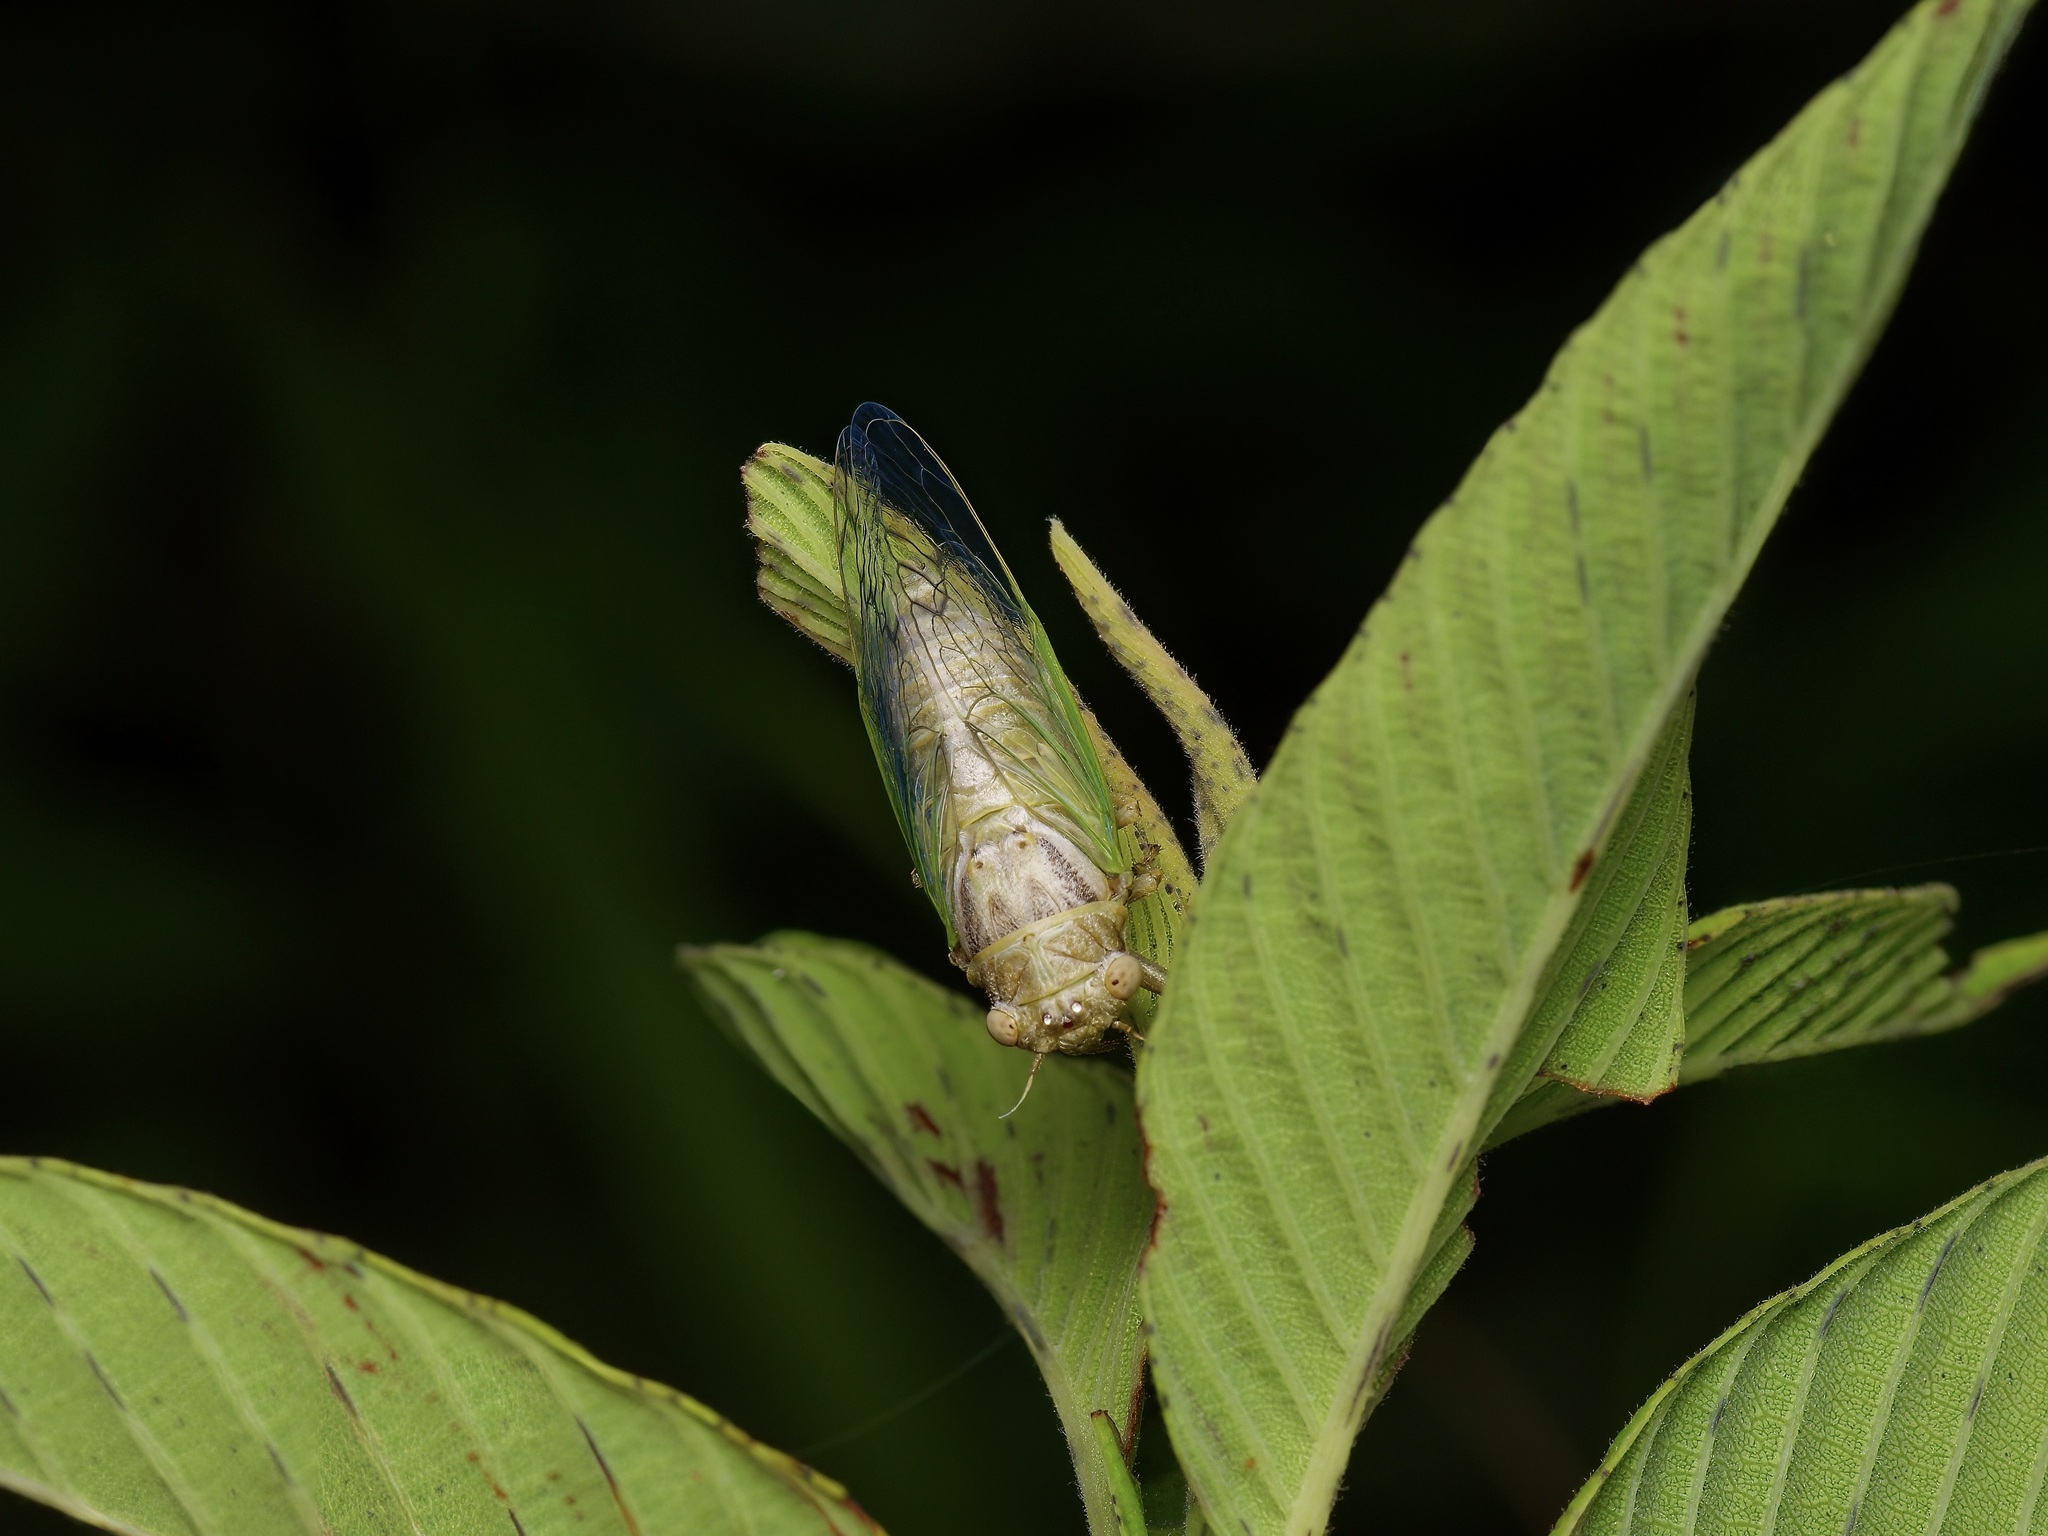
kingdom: Animalia
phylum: Arthropoda
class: Insecta
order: Hemiptera
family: Cicadidae
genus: Beameria
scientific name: Beameria venosa
